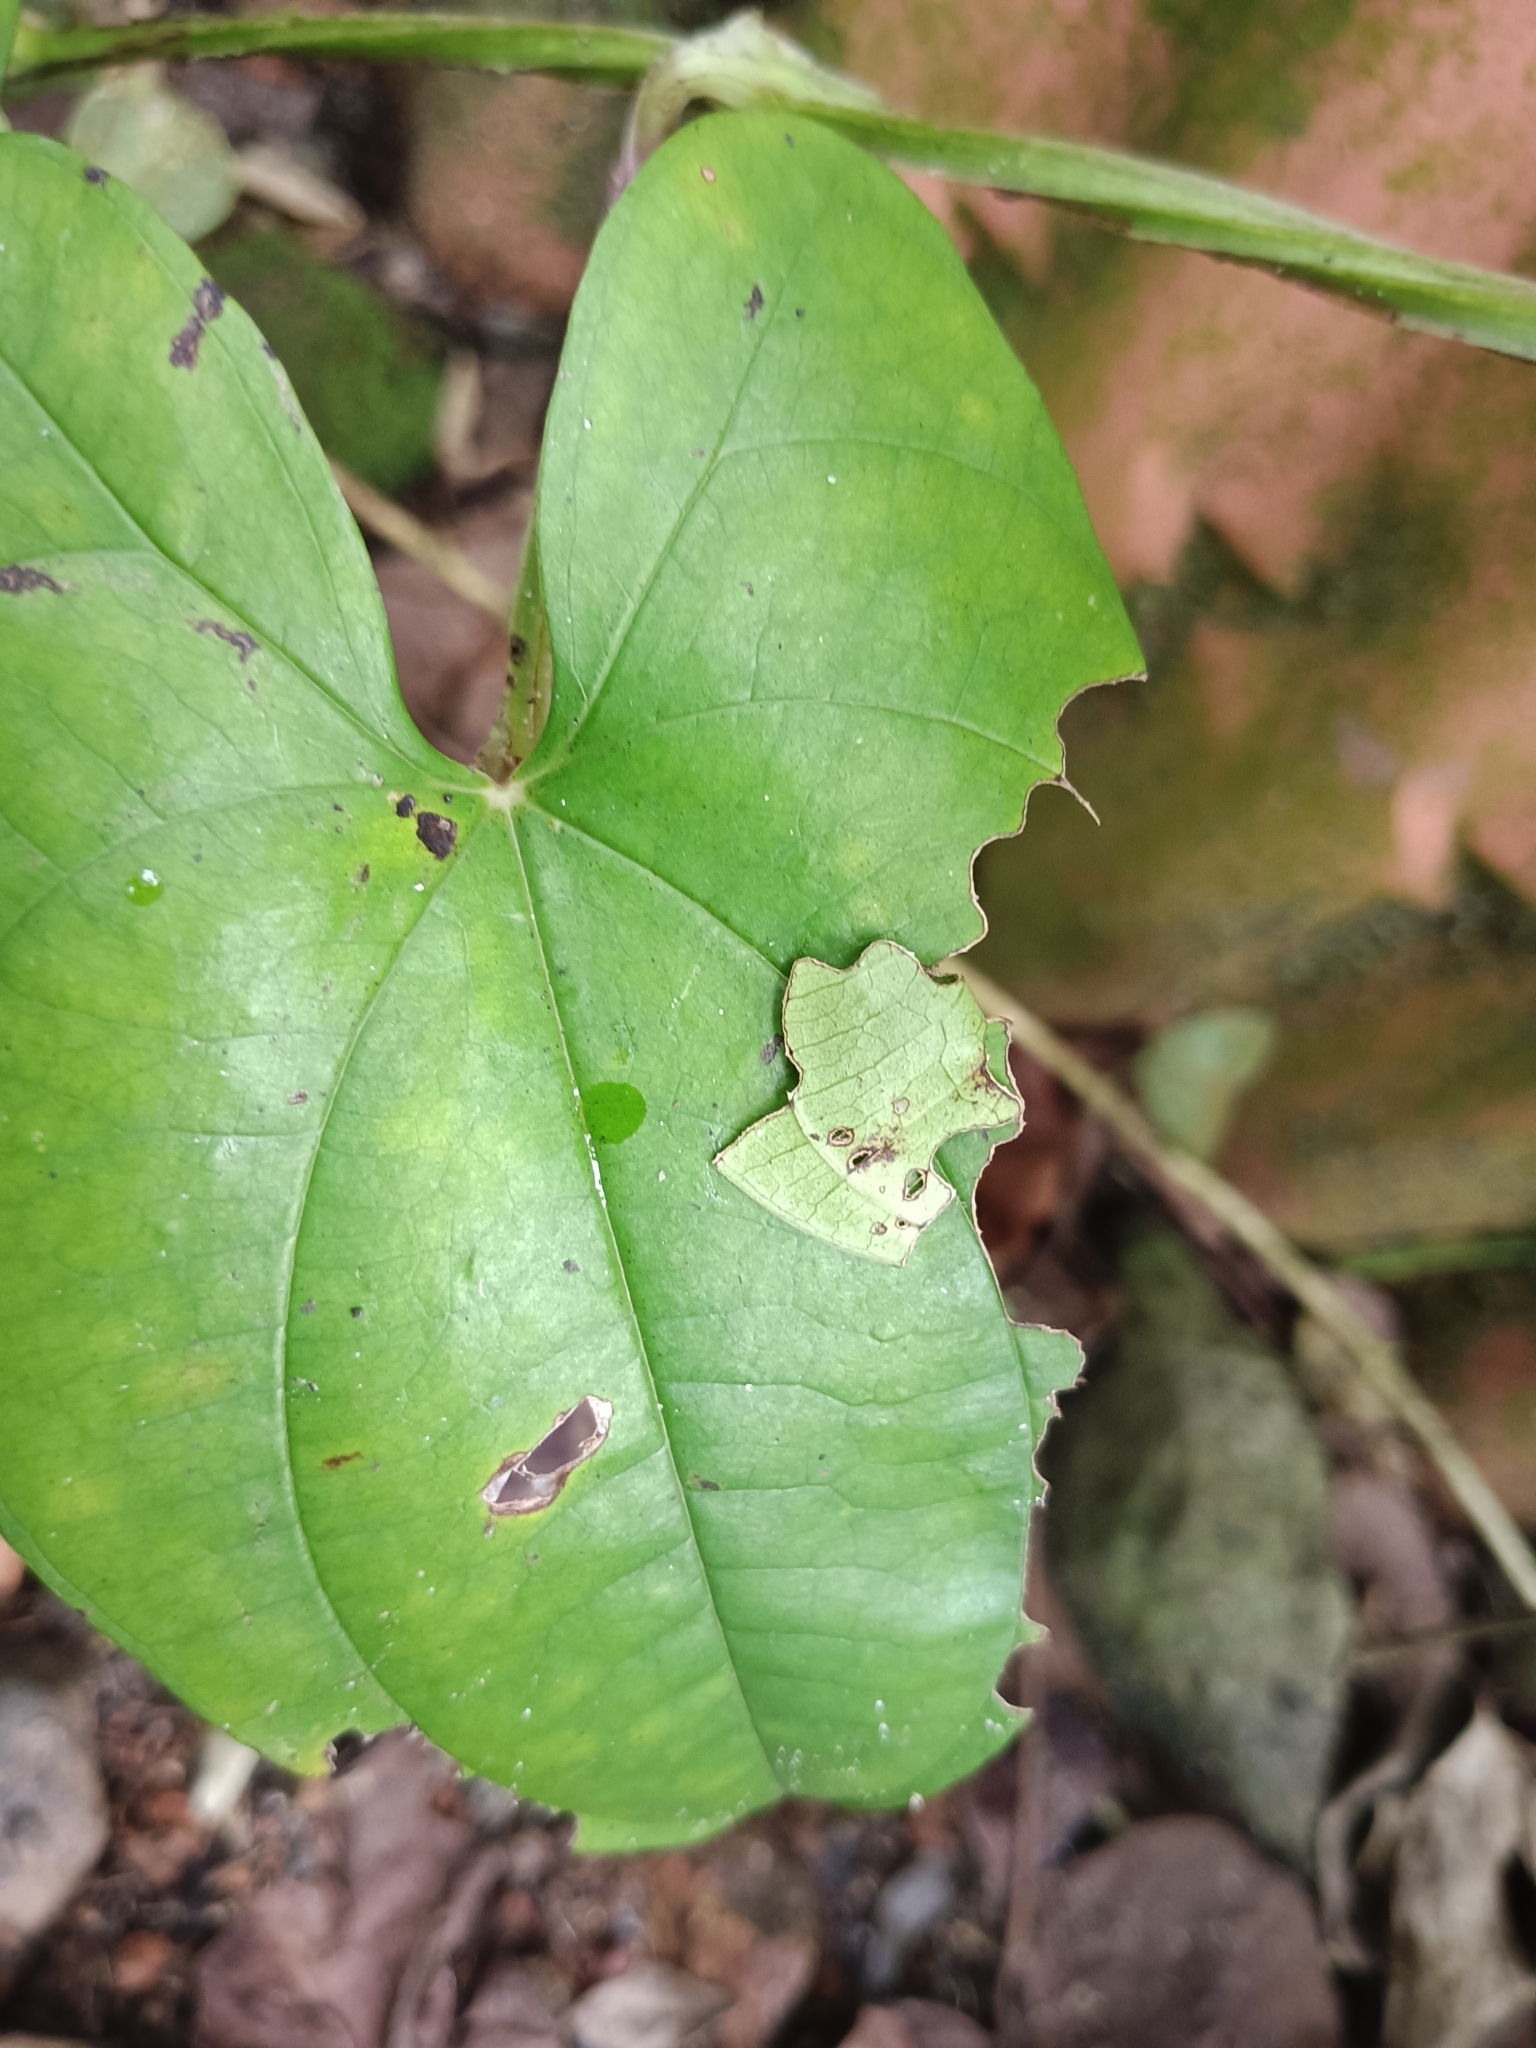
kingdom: Animalia
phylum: Arthropoda
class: Insecta
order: Lepidoptera
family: Hesperiidae
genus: Tagiades
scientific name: Tagiades litigiosa
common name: Water snow flat
